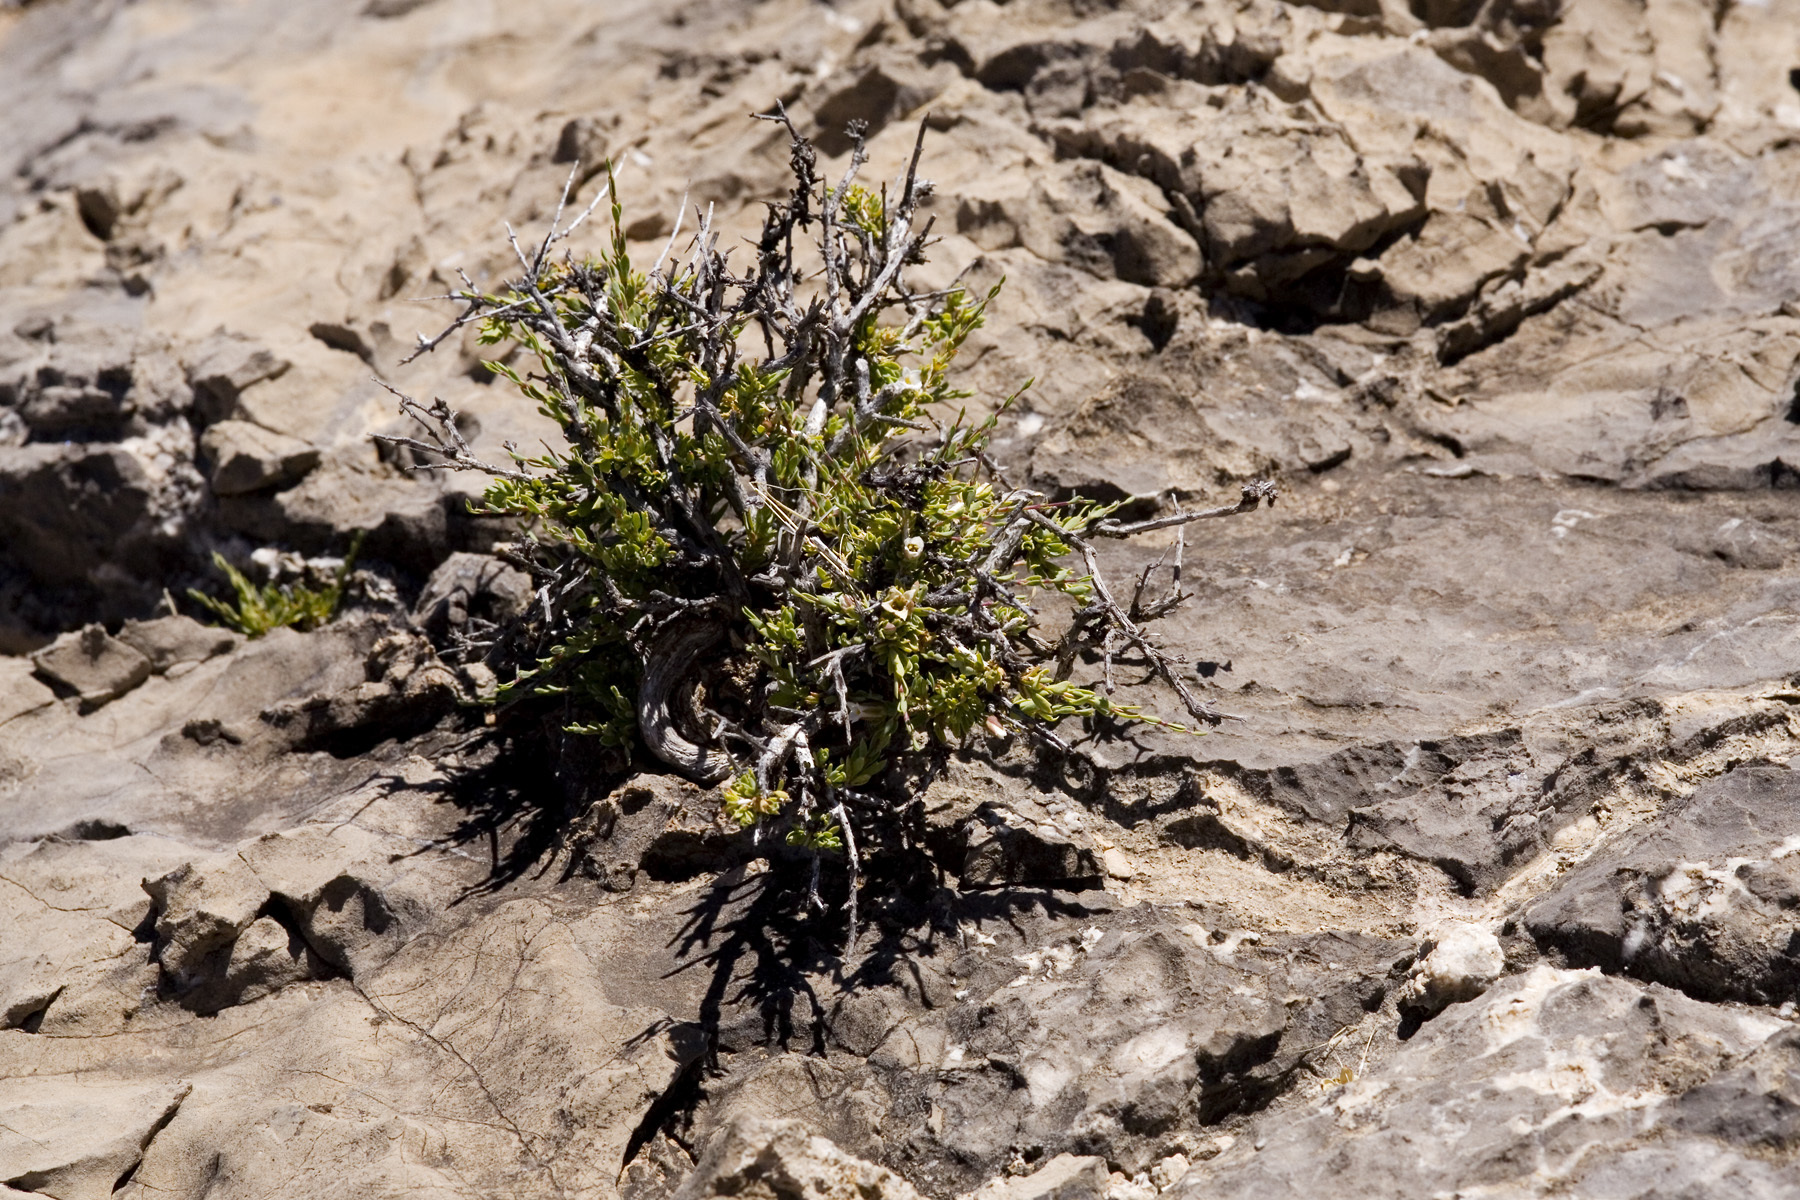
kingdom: Plantae
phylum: Tracheophyta
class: Magnoliopsida
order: Crossosomatales
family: Crossosomataceae
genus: Apacheria
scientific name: Apacheria chiricahuensis
